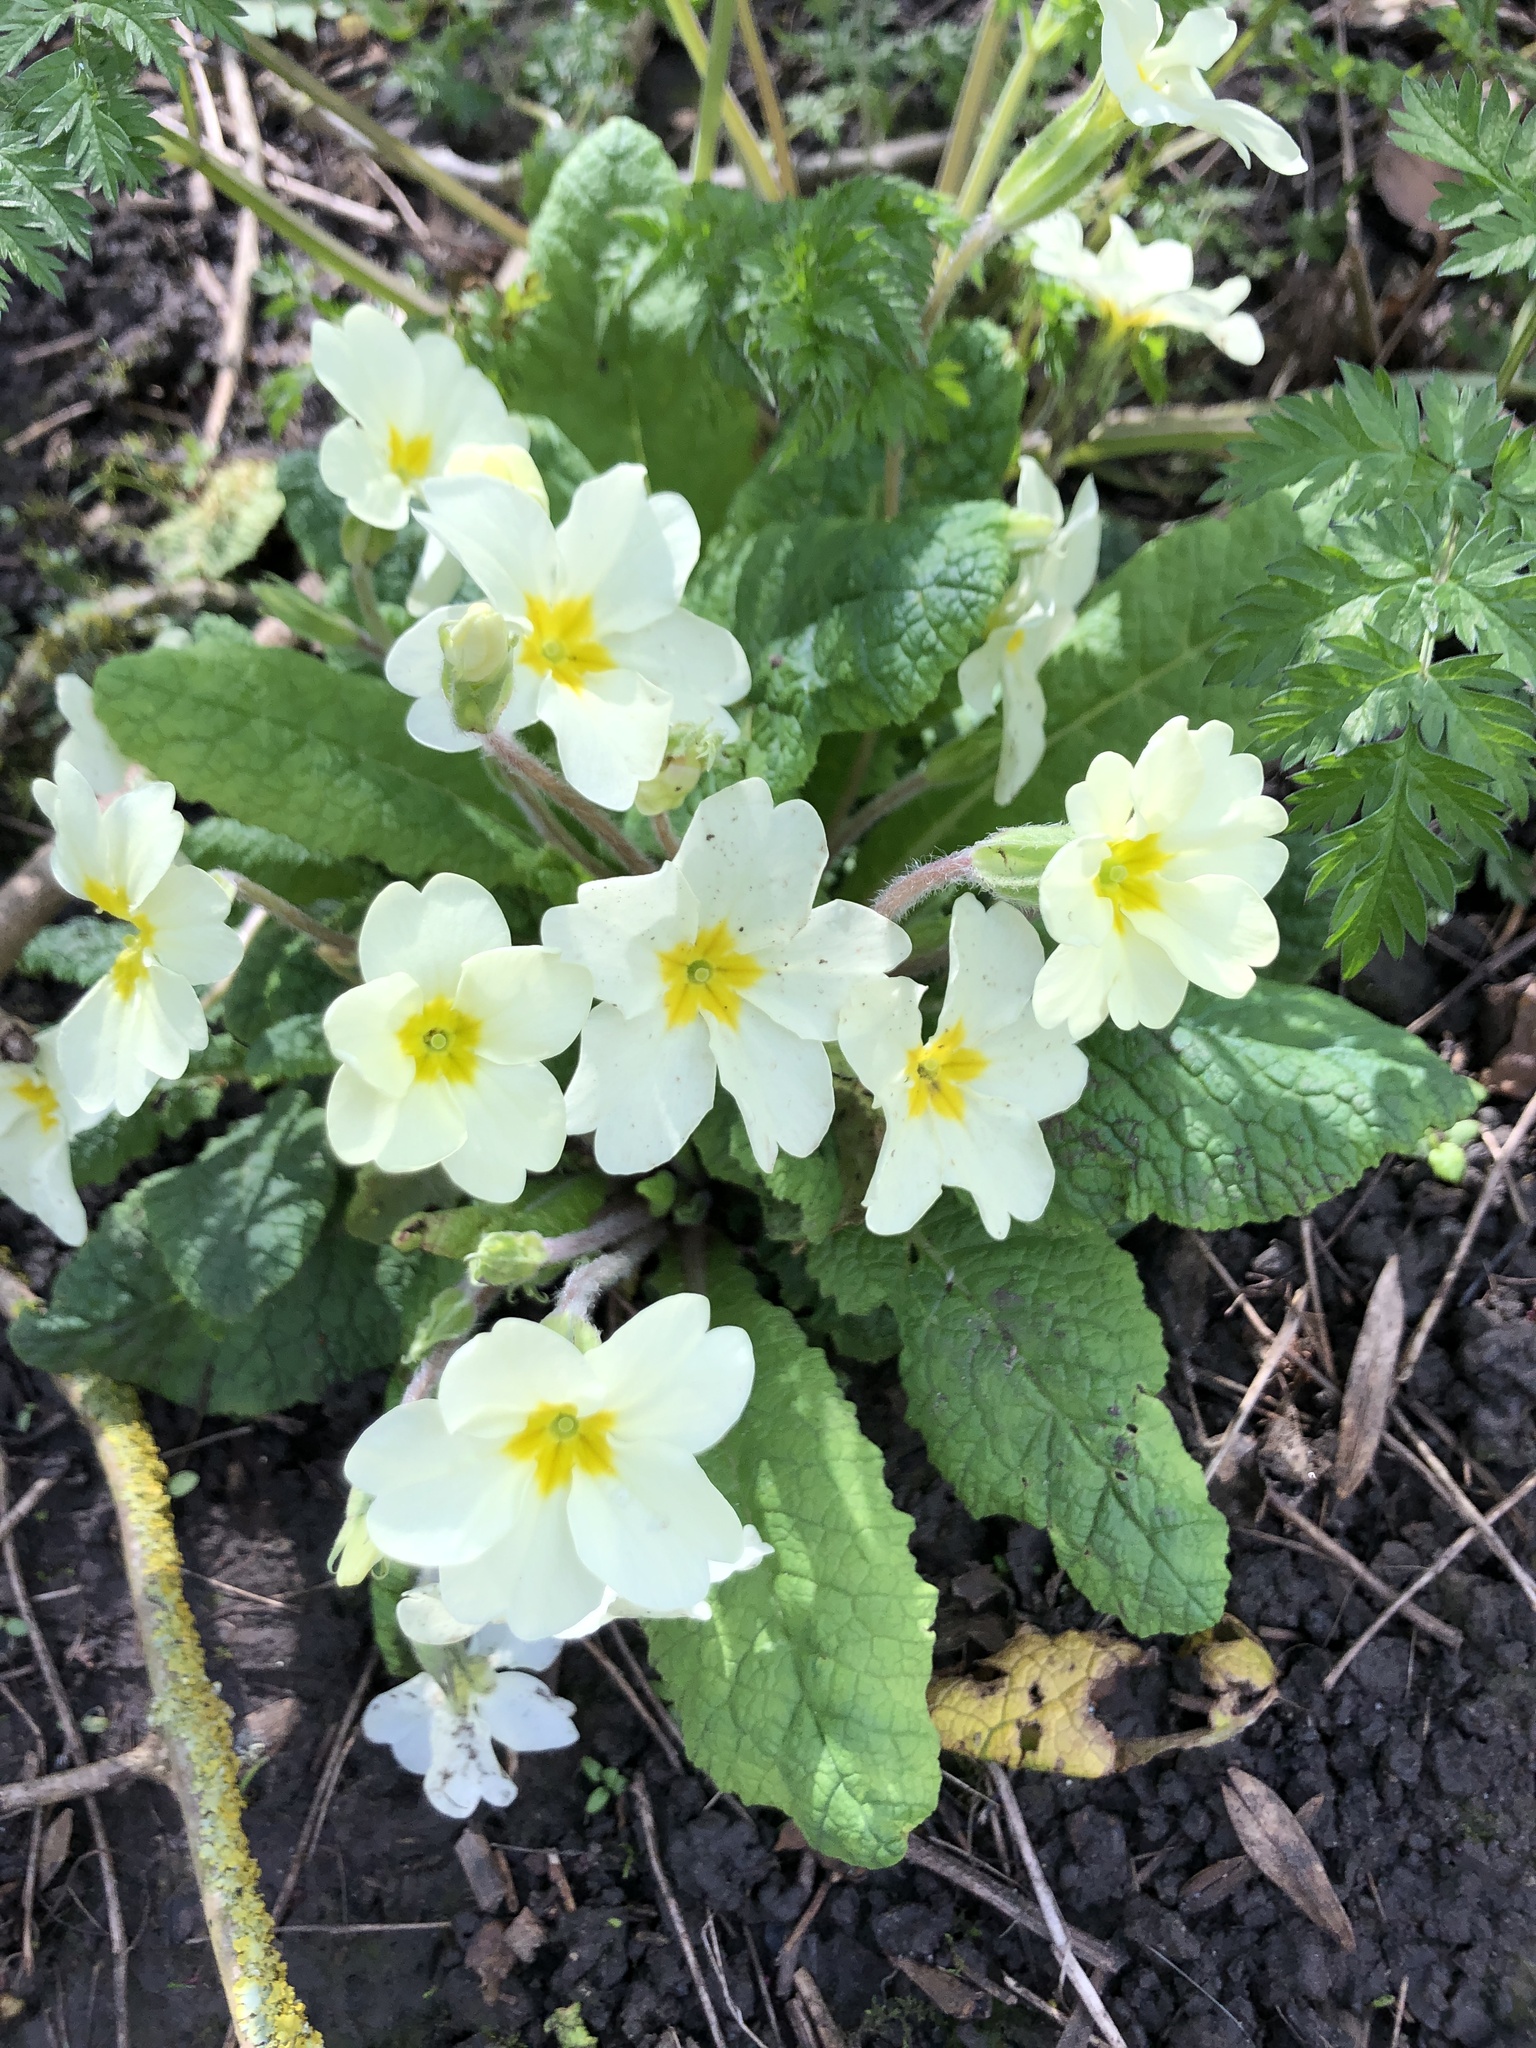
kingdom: Plantae
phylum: Tracheophyta
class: Magnoliopsida
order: Ericales
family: Primulaceae
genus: Primula
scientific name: Primula vulgaris
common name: Primrose
